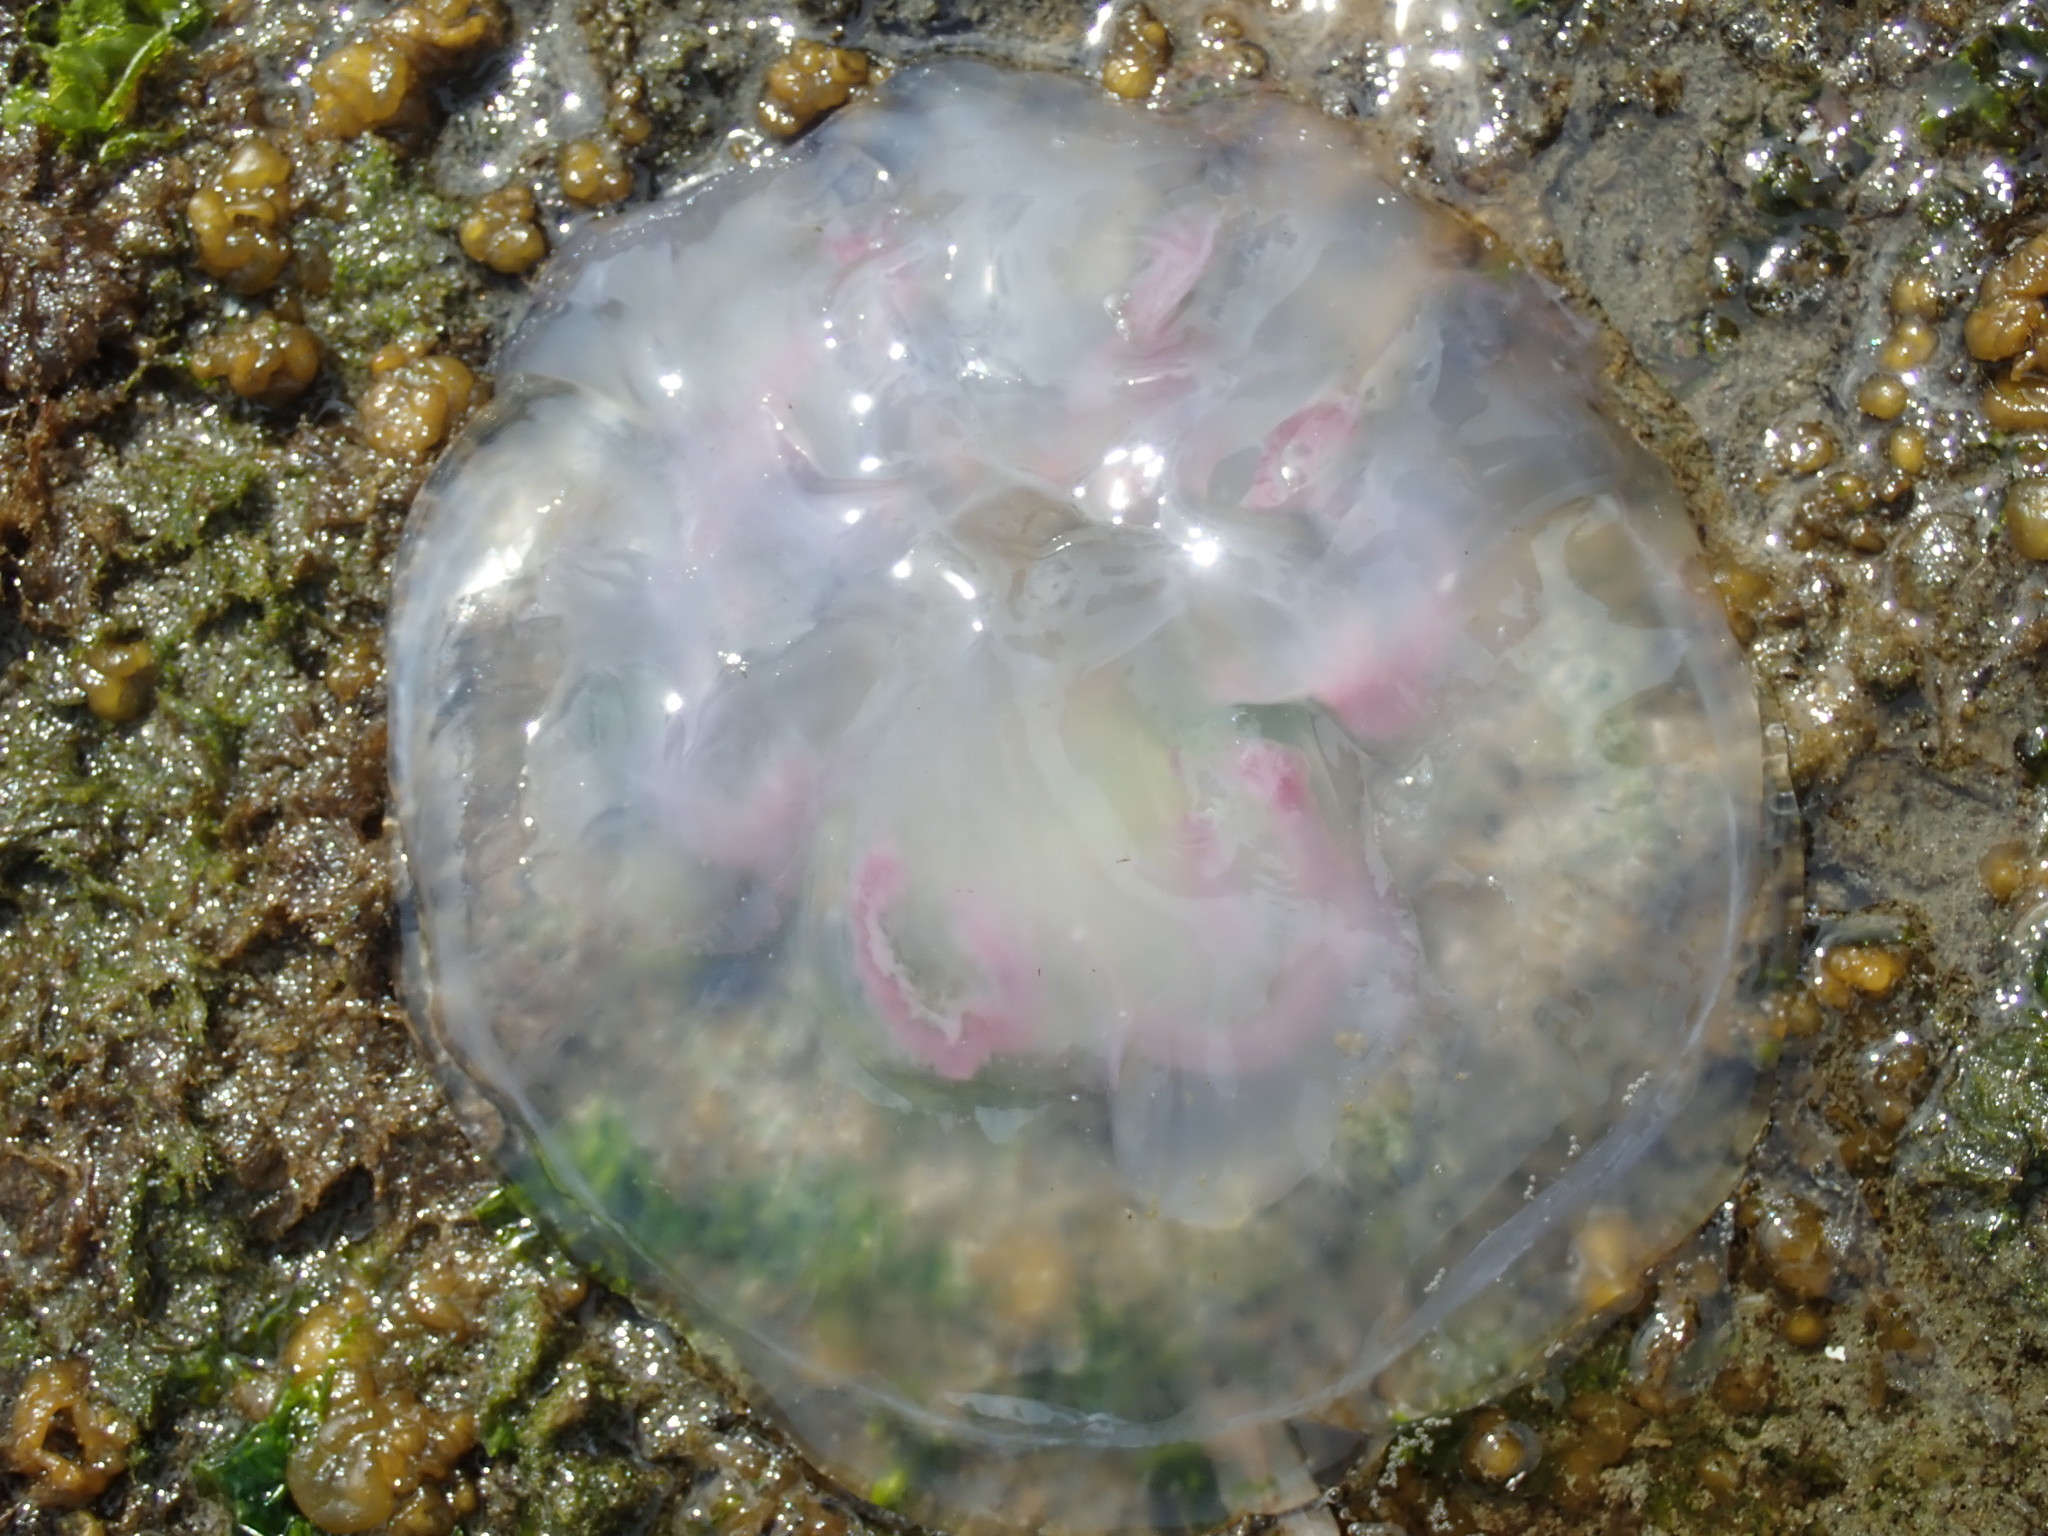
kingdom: Animalia
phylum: Cnidaria
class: Scyphozoa
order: Semaeostomeae
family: Ulmaridae
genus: Aurelia
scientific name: Aurelia labiata
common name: Pacific moon jelly
